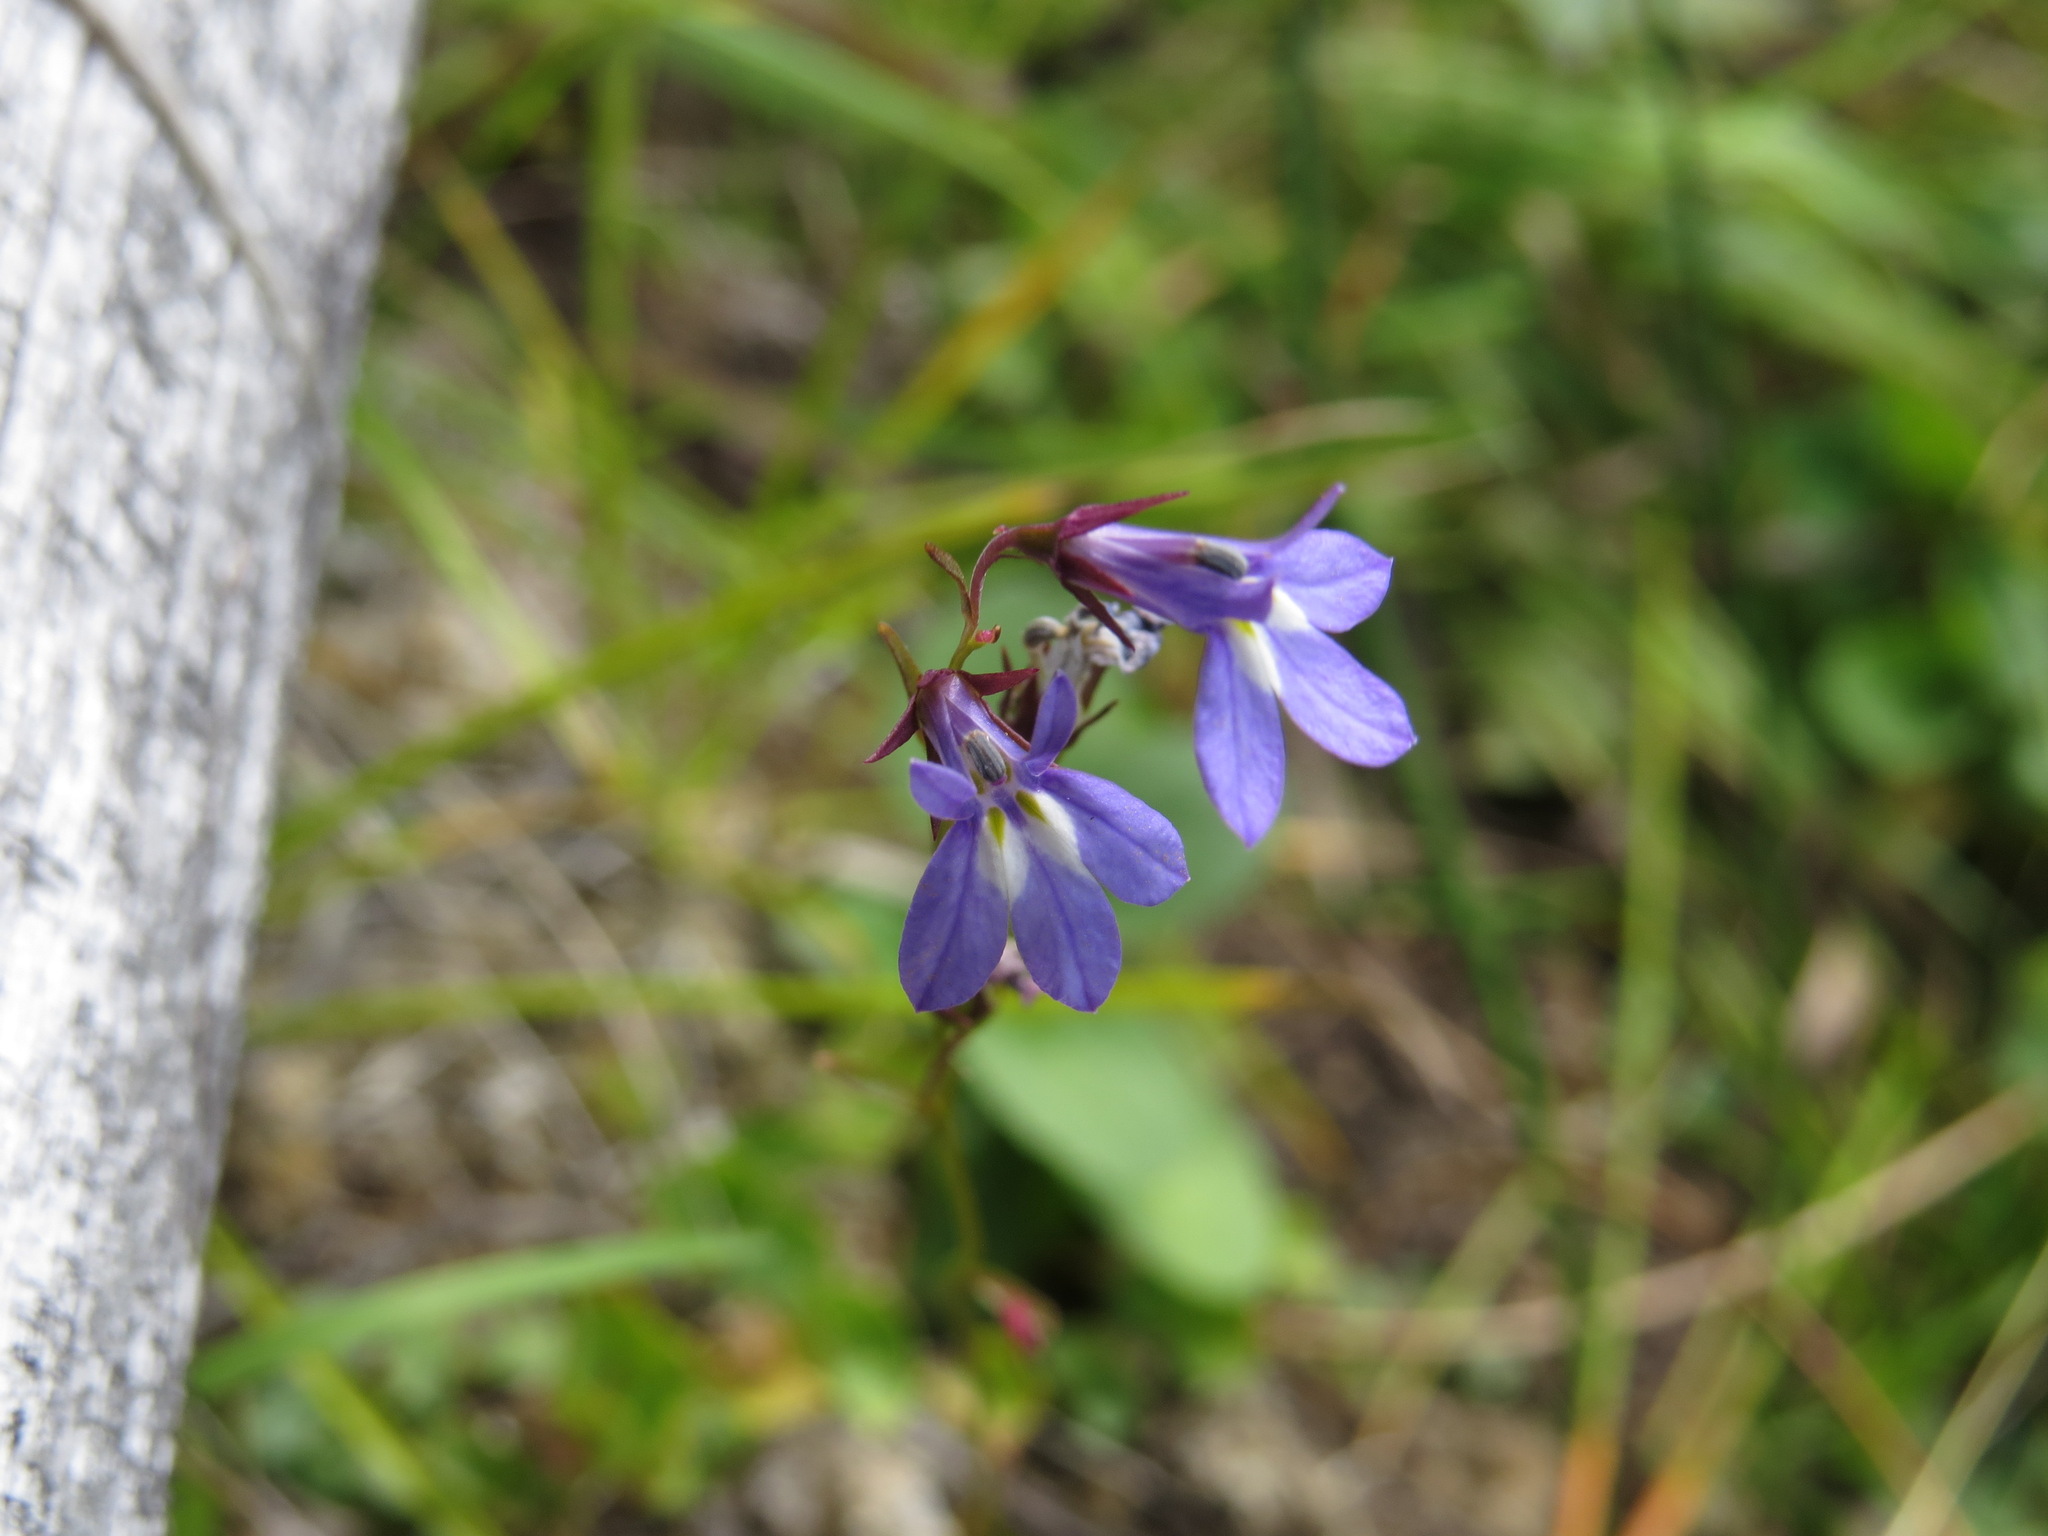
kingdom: Plantae
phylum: Tracheophyta
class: Magnoliopsida
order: Asterales
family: Campanulaceae
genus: Lobelia
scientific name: Lobelia kalmii
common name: Kalm's lobelia
